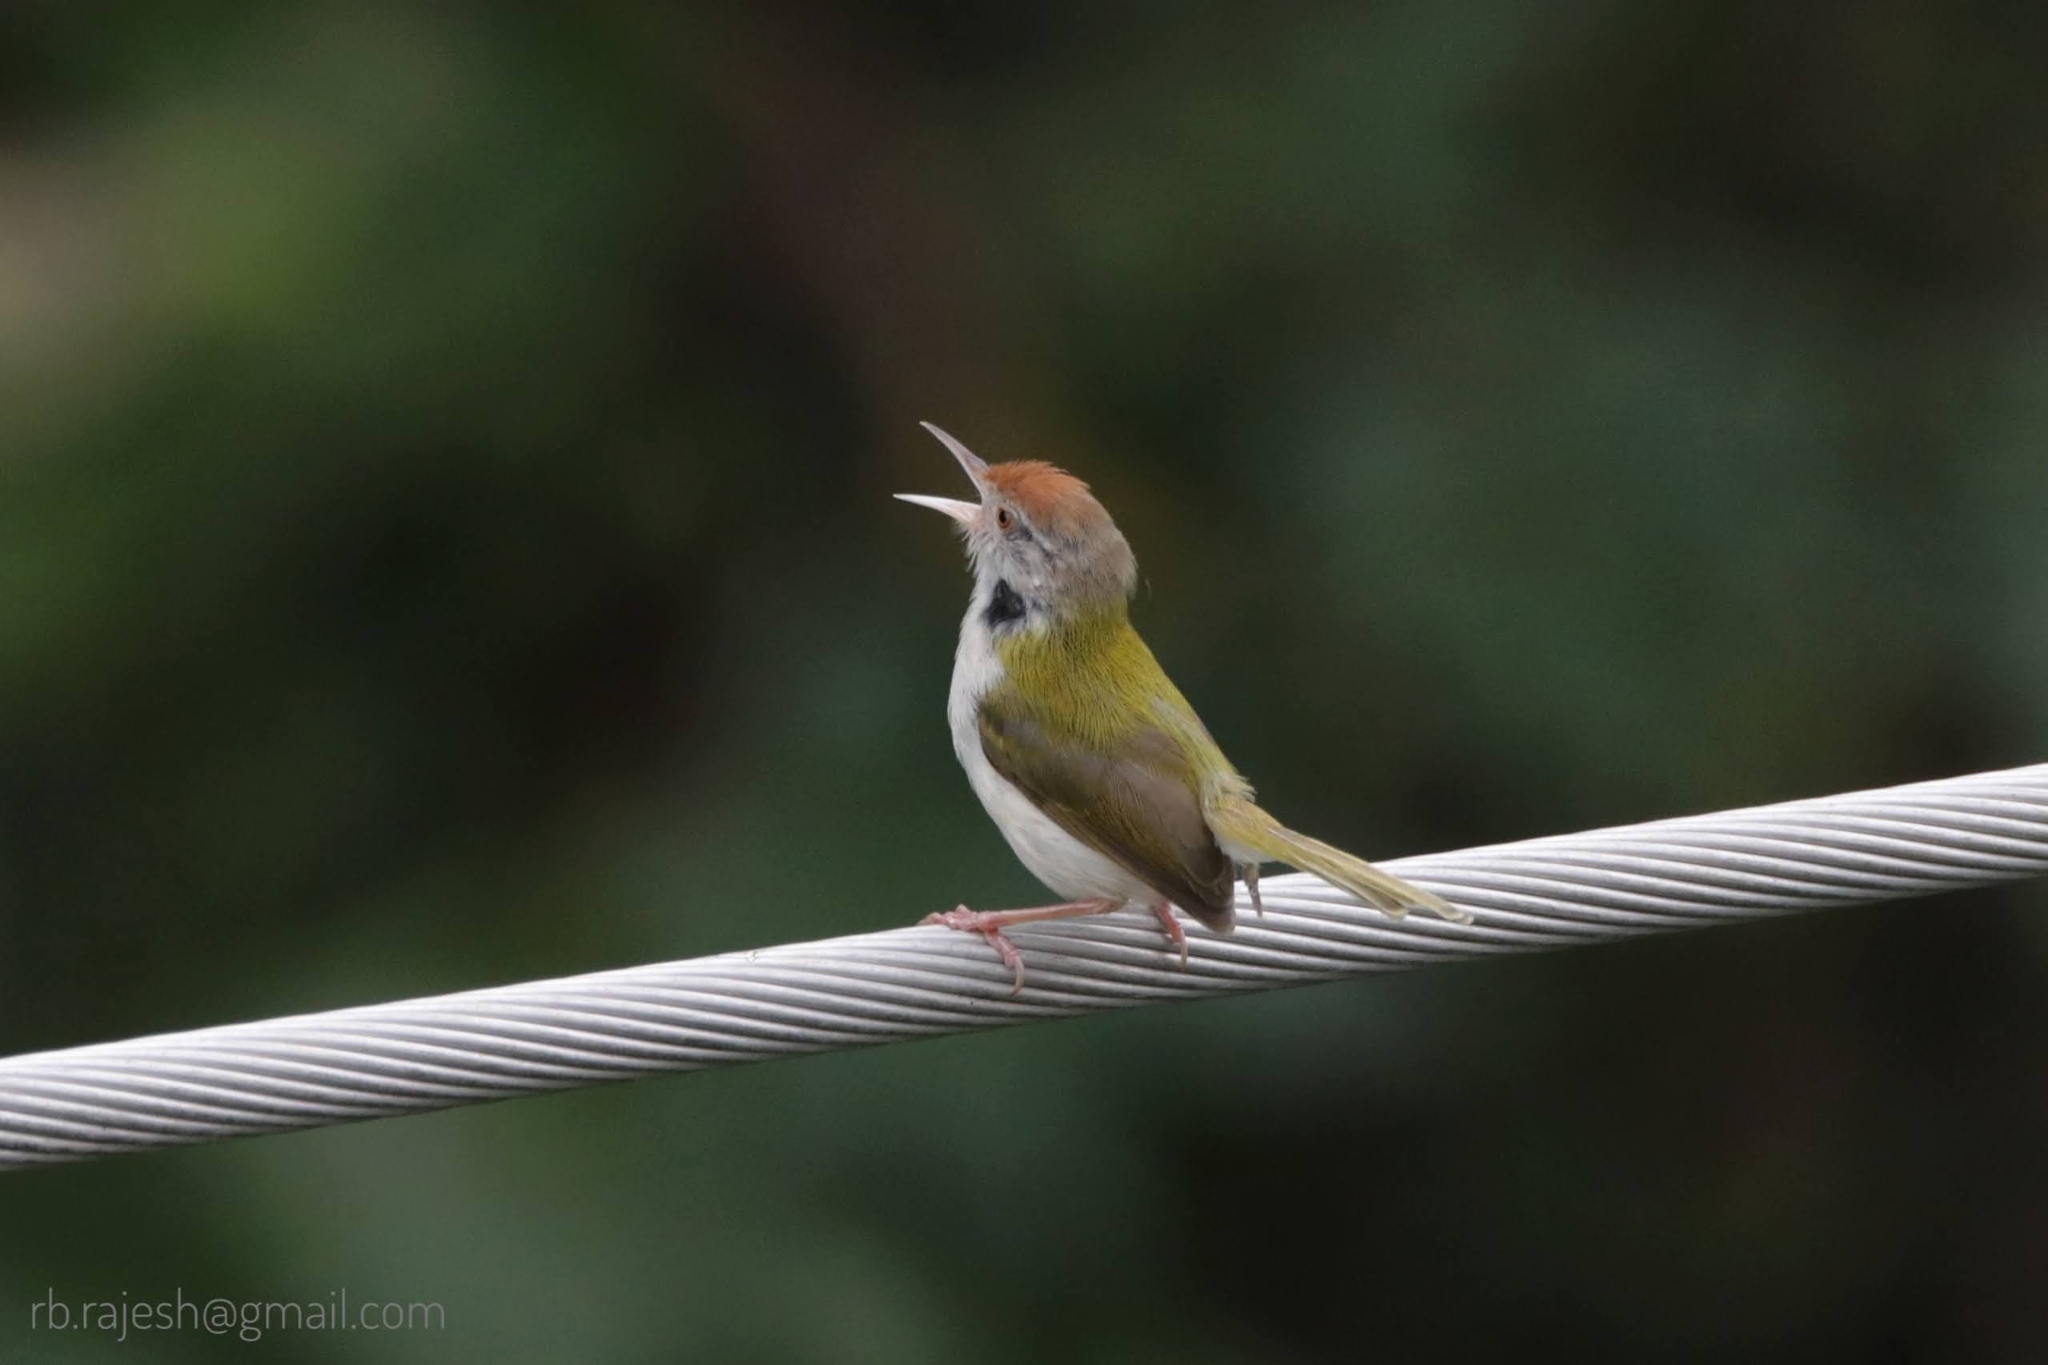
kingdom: Animalia
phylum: Chordata
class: Aves
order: Passeriformes
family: Cisticolidae
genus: Orthotomus
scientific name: Orthotomus sutorius
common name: Common tailorbird
